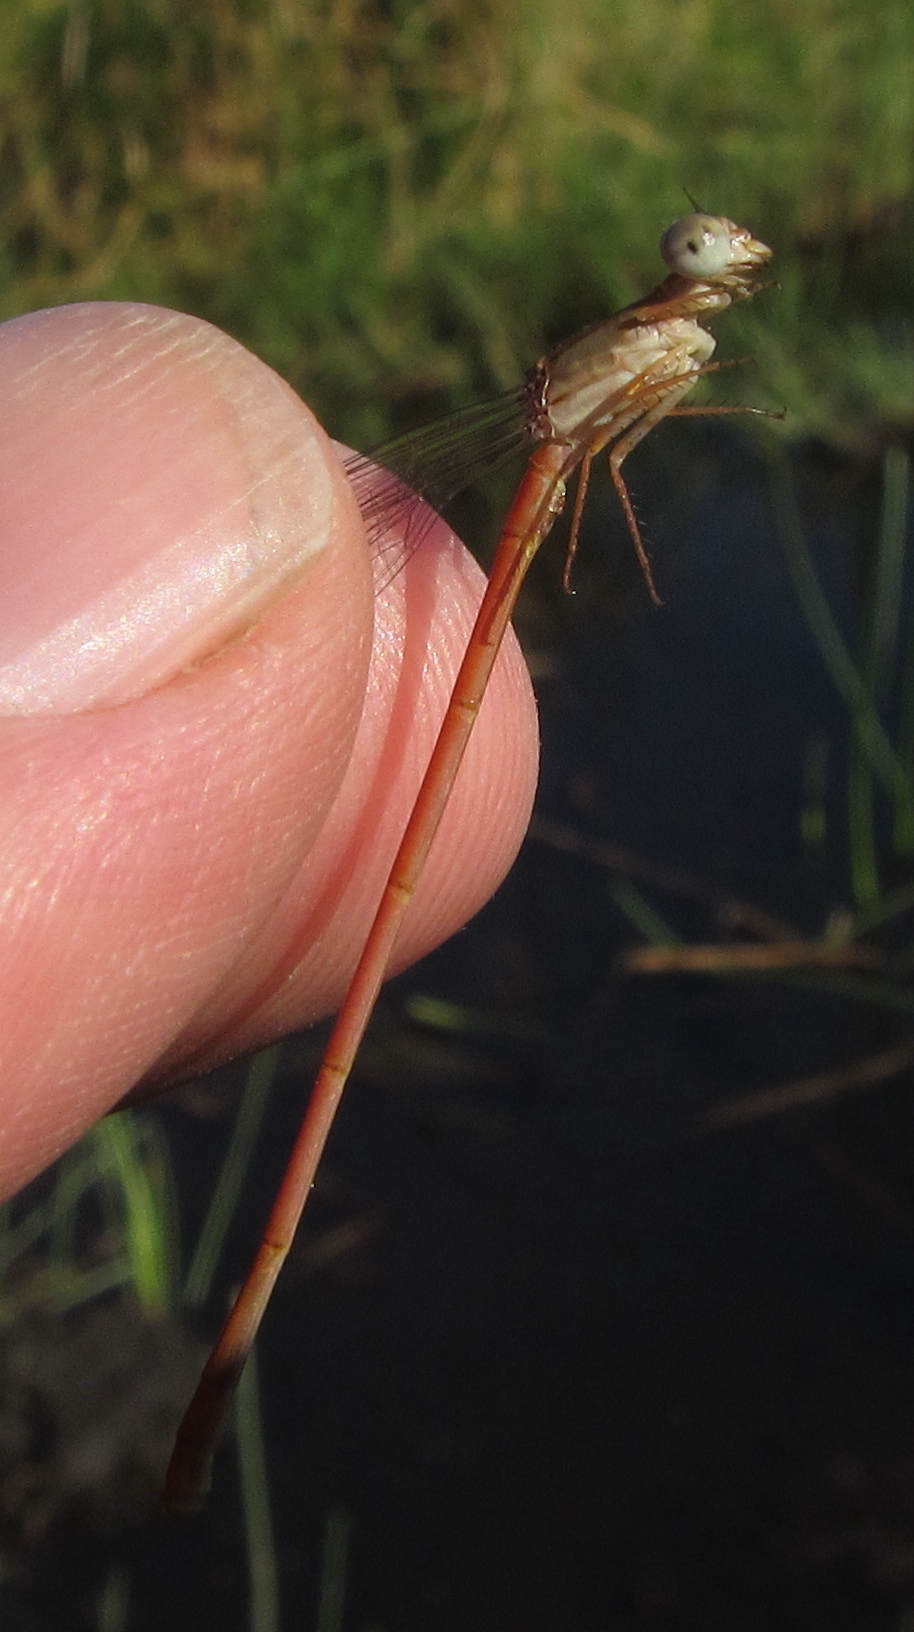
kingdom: Animalia
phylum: Arthropoda
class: Insecta
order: Odonata
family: Coenagrionidae
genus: Ceriagrion
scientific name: Ceriagrion glabrum
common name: Common pond damsel
